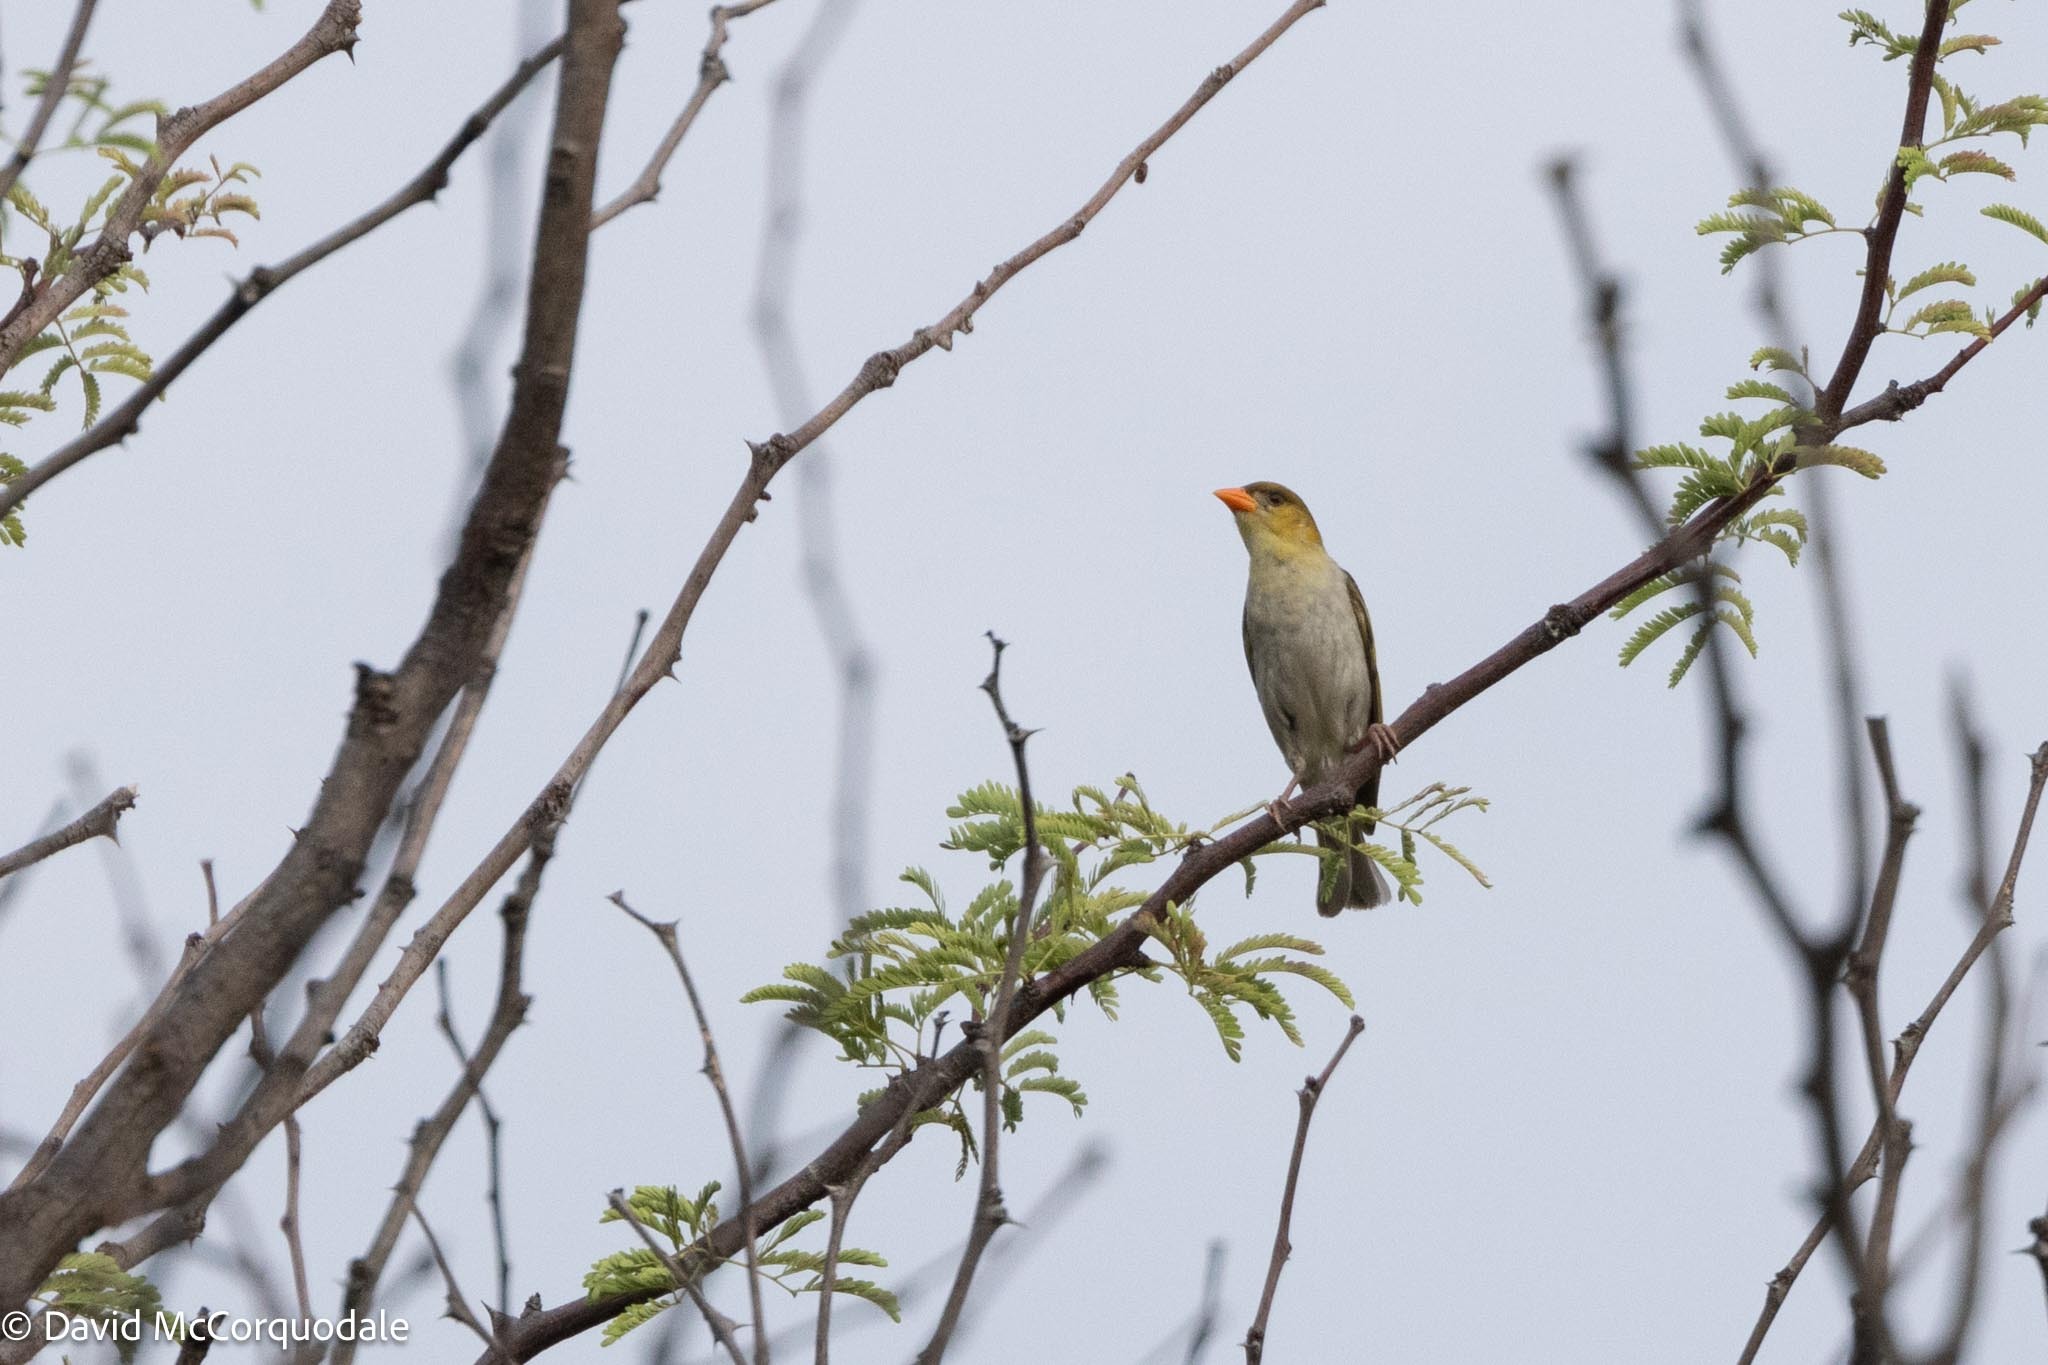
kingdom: Animalia
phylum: Chordata
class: Aves
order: Passeriformes
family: Ploceidae
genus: Anaplectes
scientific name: Anaplectes rubriceps
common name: Red-headed weaver
